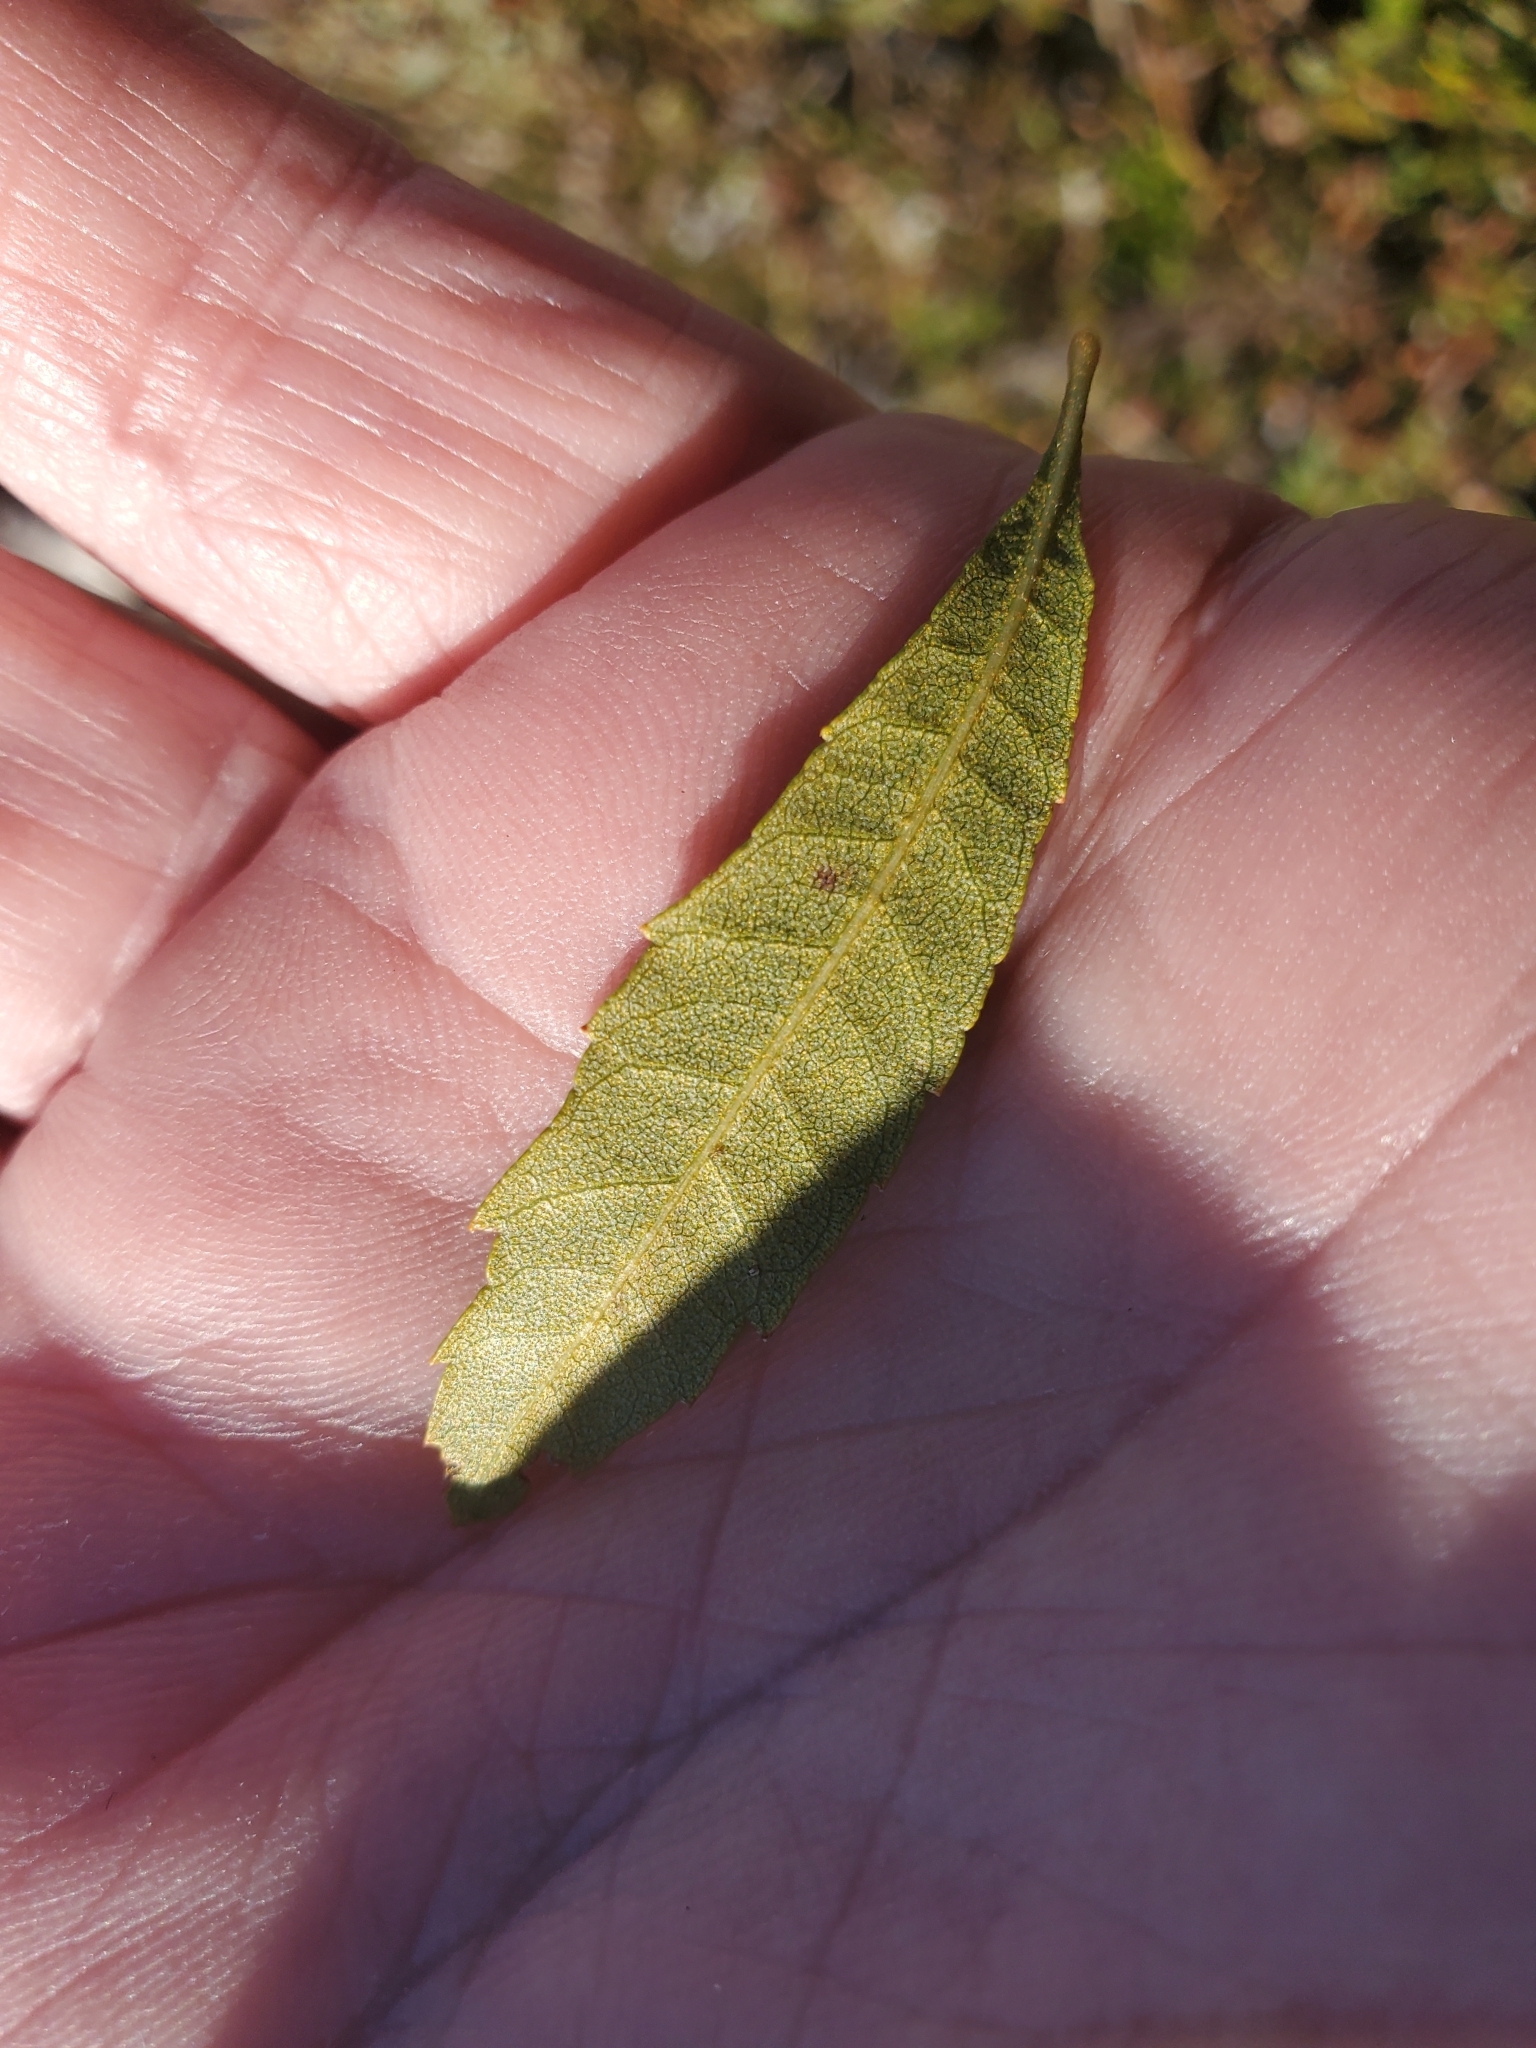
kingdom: Plantae
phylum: Tracheophyta
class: Magnoliopsida
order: Fagales
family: Myricaceae
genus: Morella
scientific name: Morella cerifera
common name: Wax myrtle
